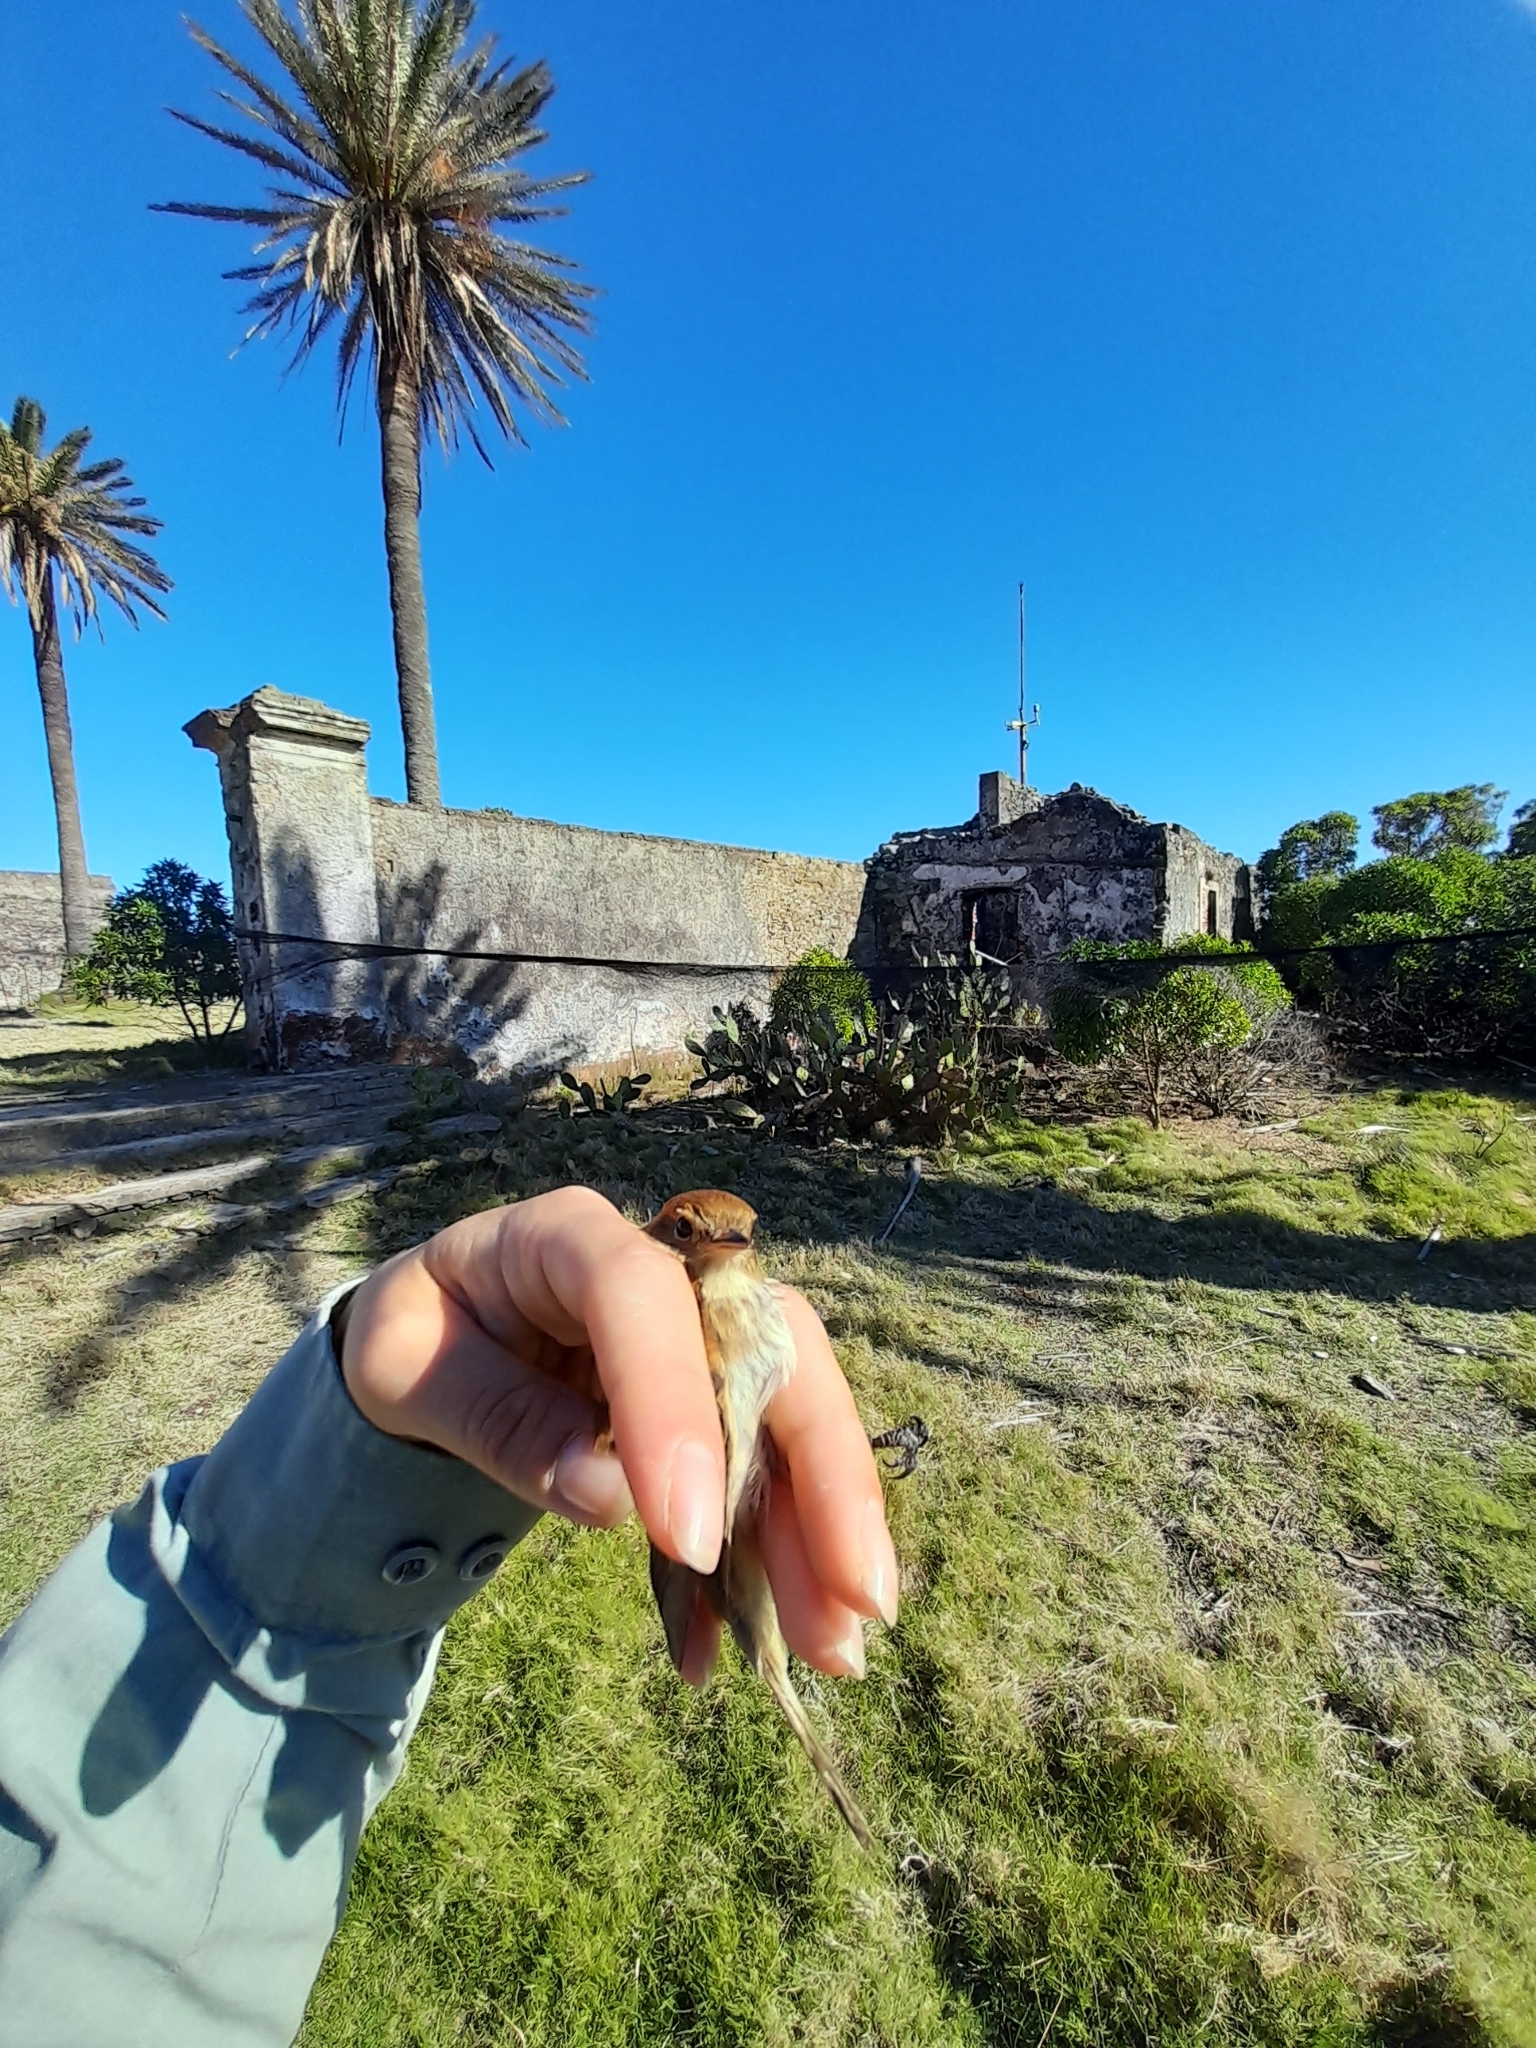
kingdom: Animalia
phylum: Chordata
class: Aves
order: Passeriformes
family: Tyrannidae
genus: Myiophobus
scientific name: Myiophobus fasciatus
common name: Bran-colored flycatcher
